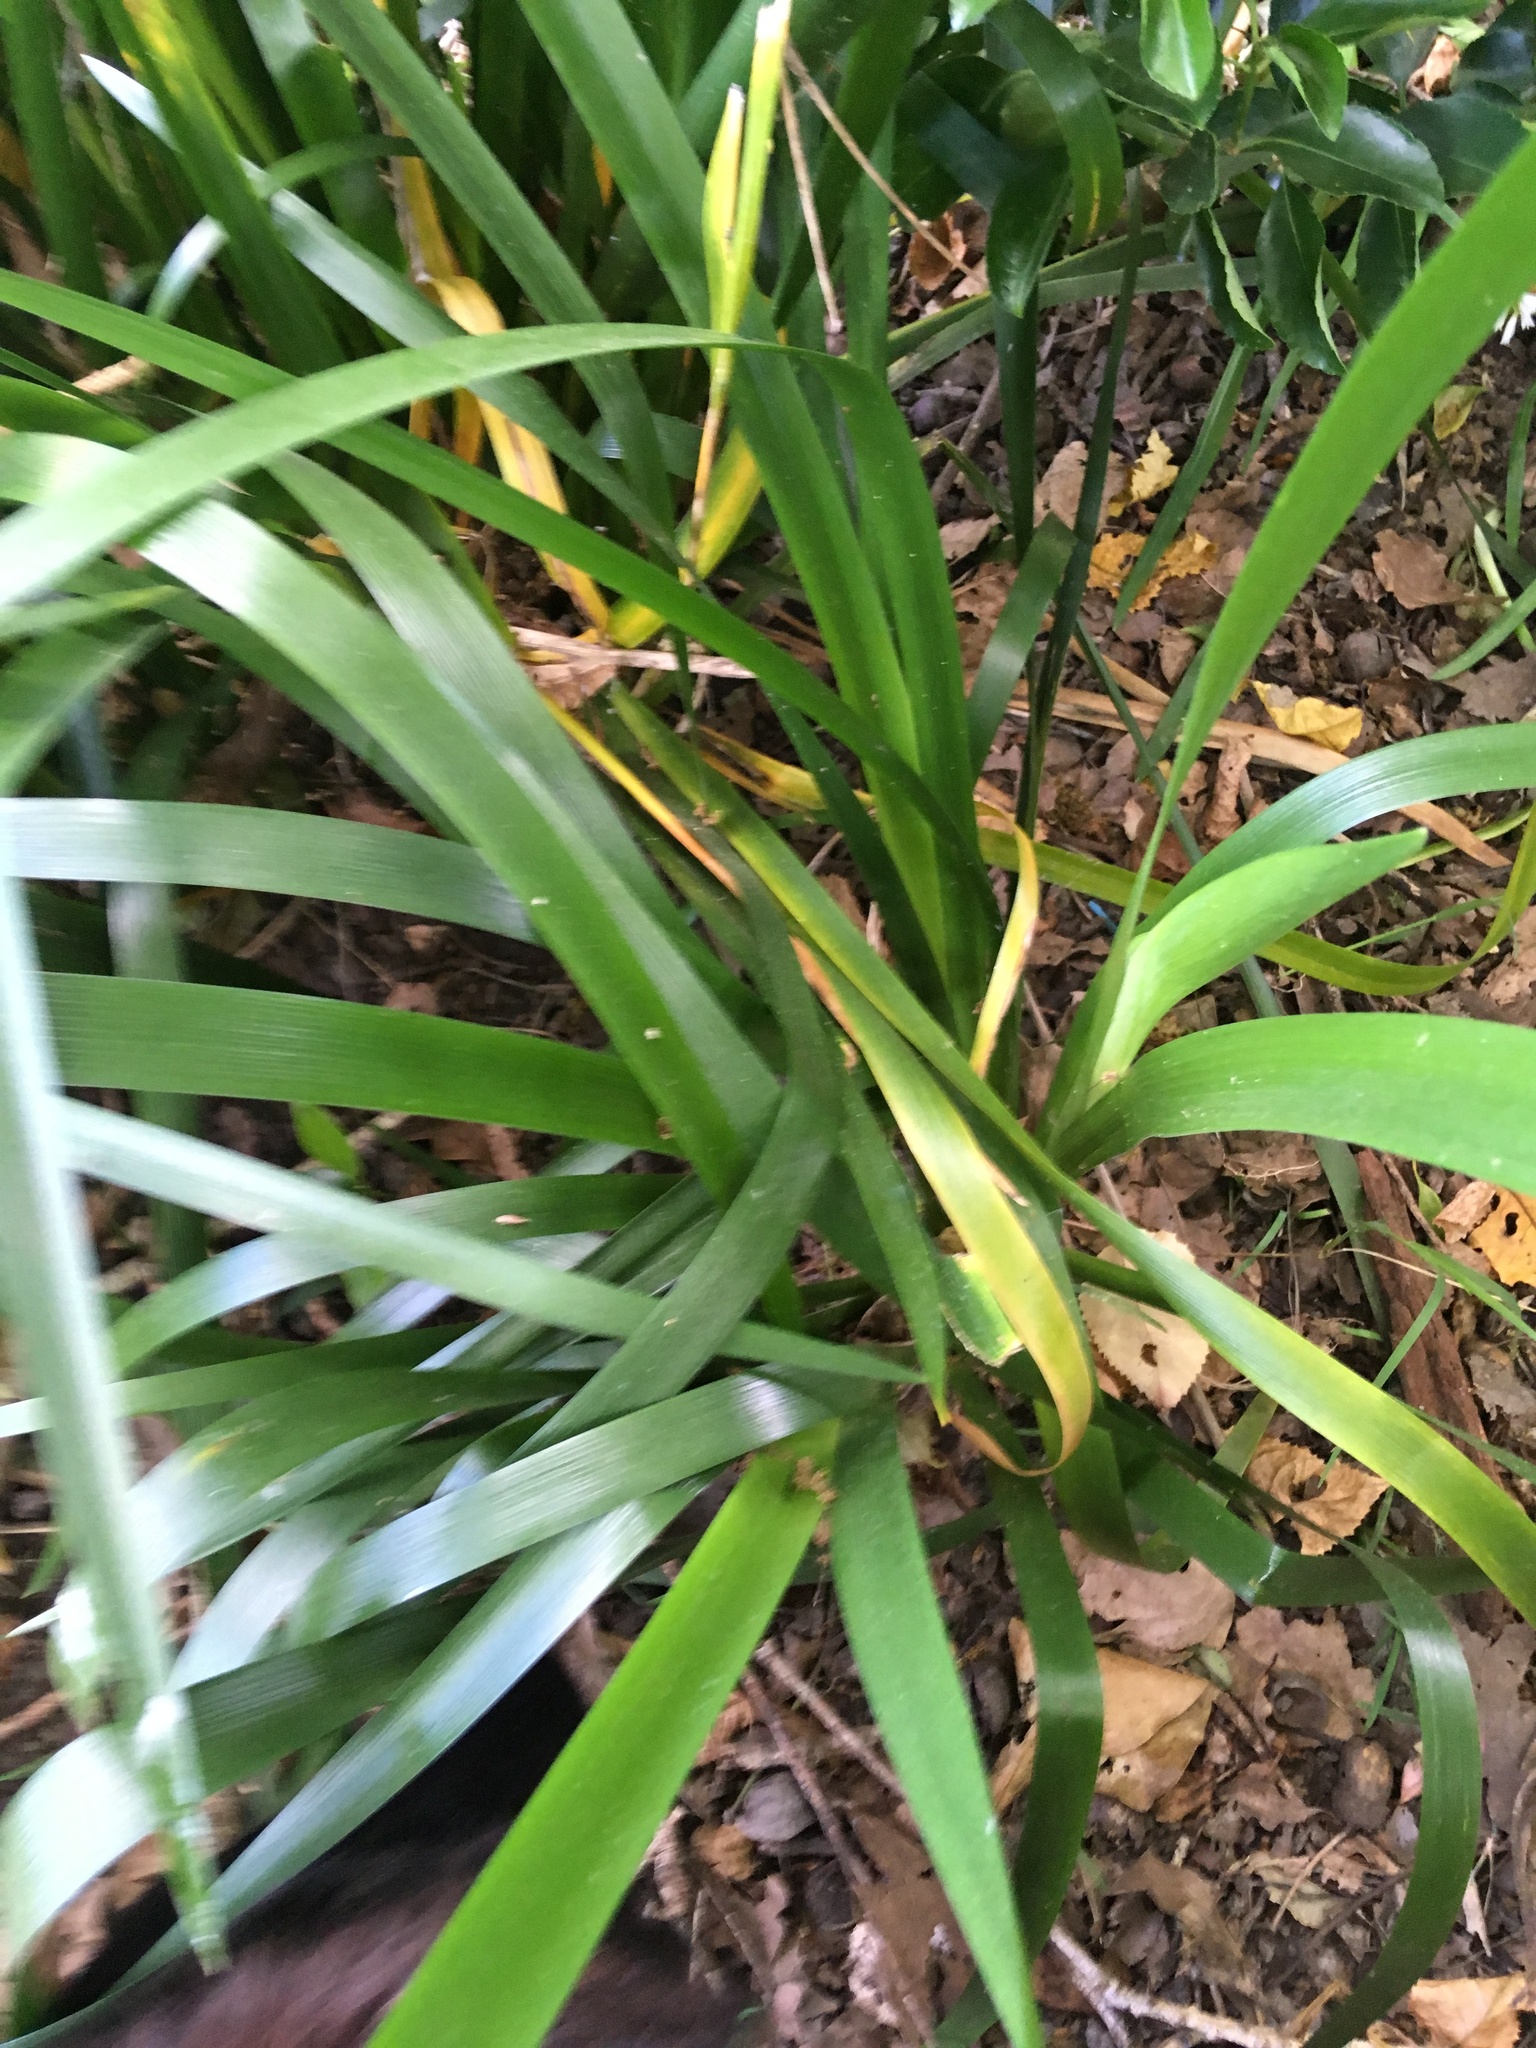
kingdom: Plantae
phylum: Tracheophyta
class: Liliopsida
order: Asparagales
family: Iridaceae
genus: Iris
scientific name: Iris foetidissima
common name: Stinking iris
